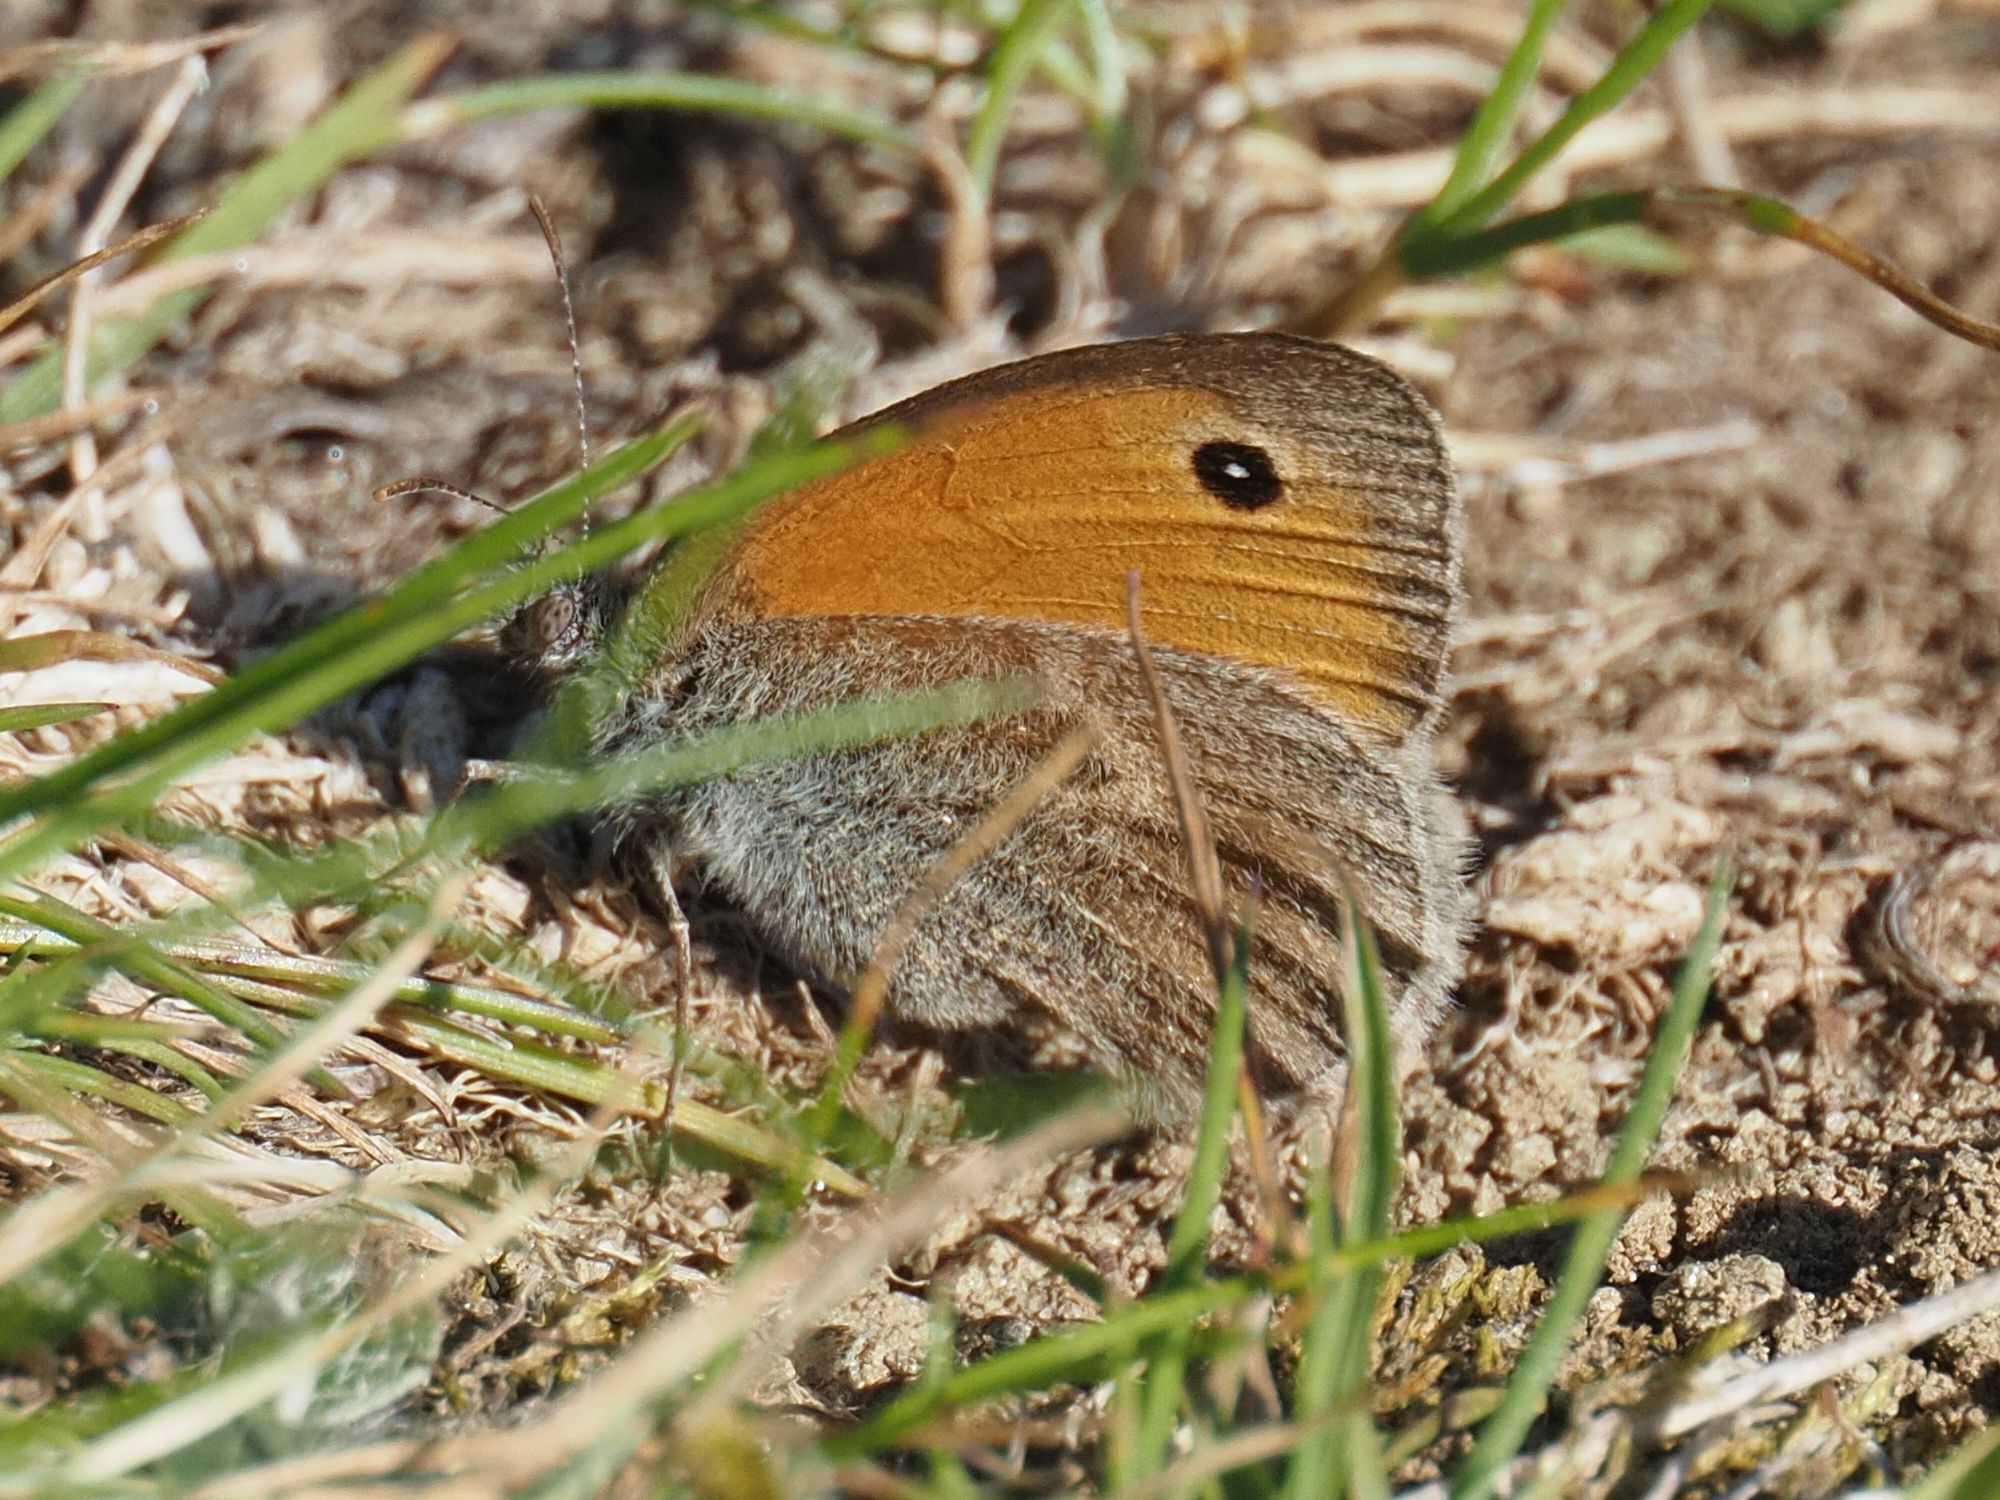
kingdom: Animalia
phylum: Arthropoda
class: Insecta
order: Lepidoptera
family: Nymphalidae
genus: Coenonympha
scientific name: Coenonympha pamphilus
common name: Small heath
